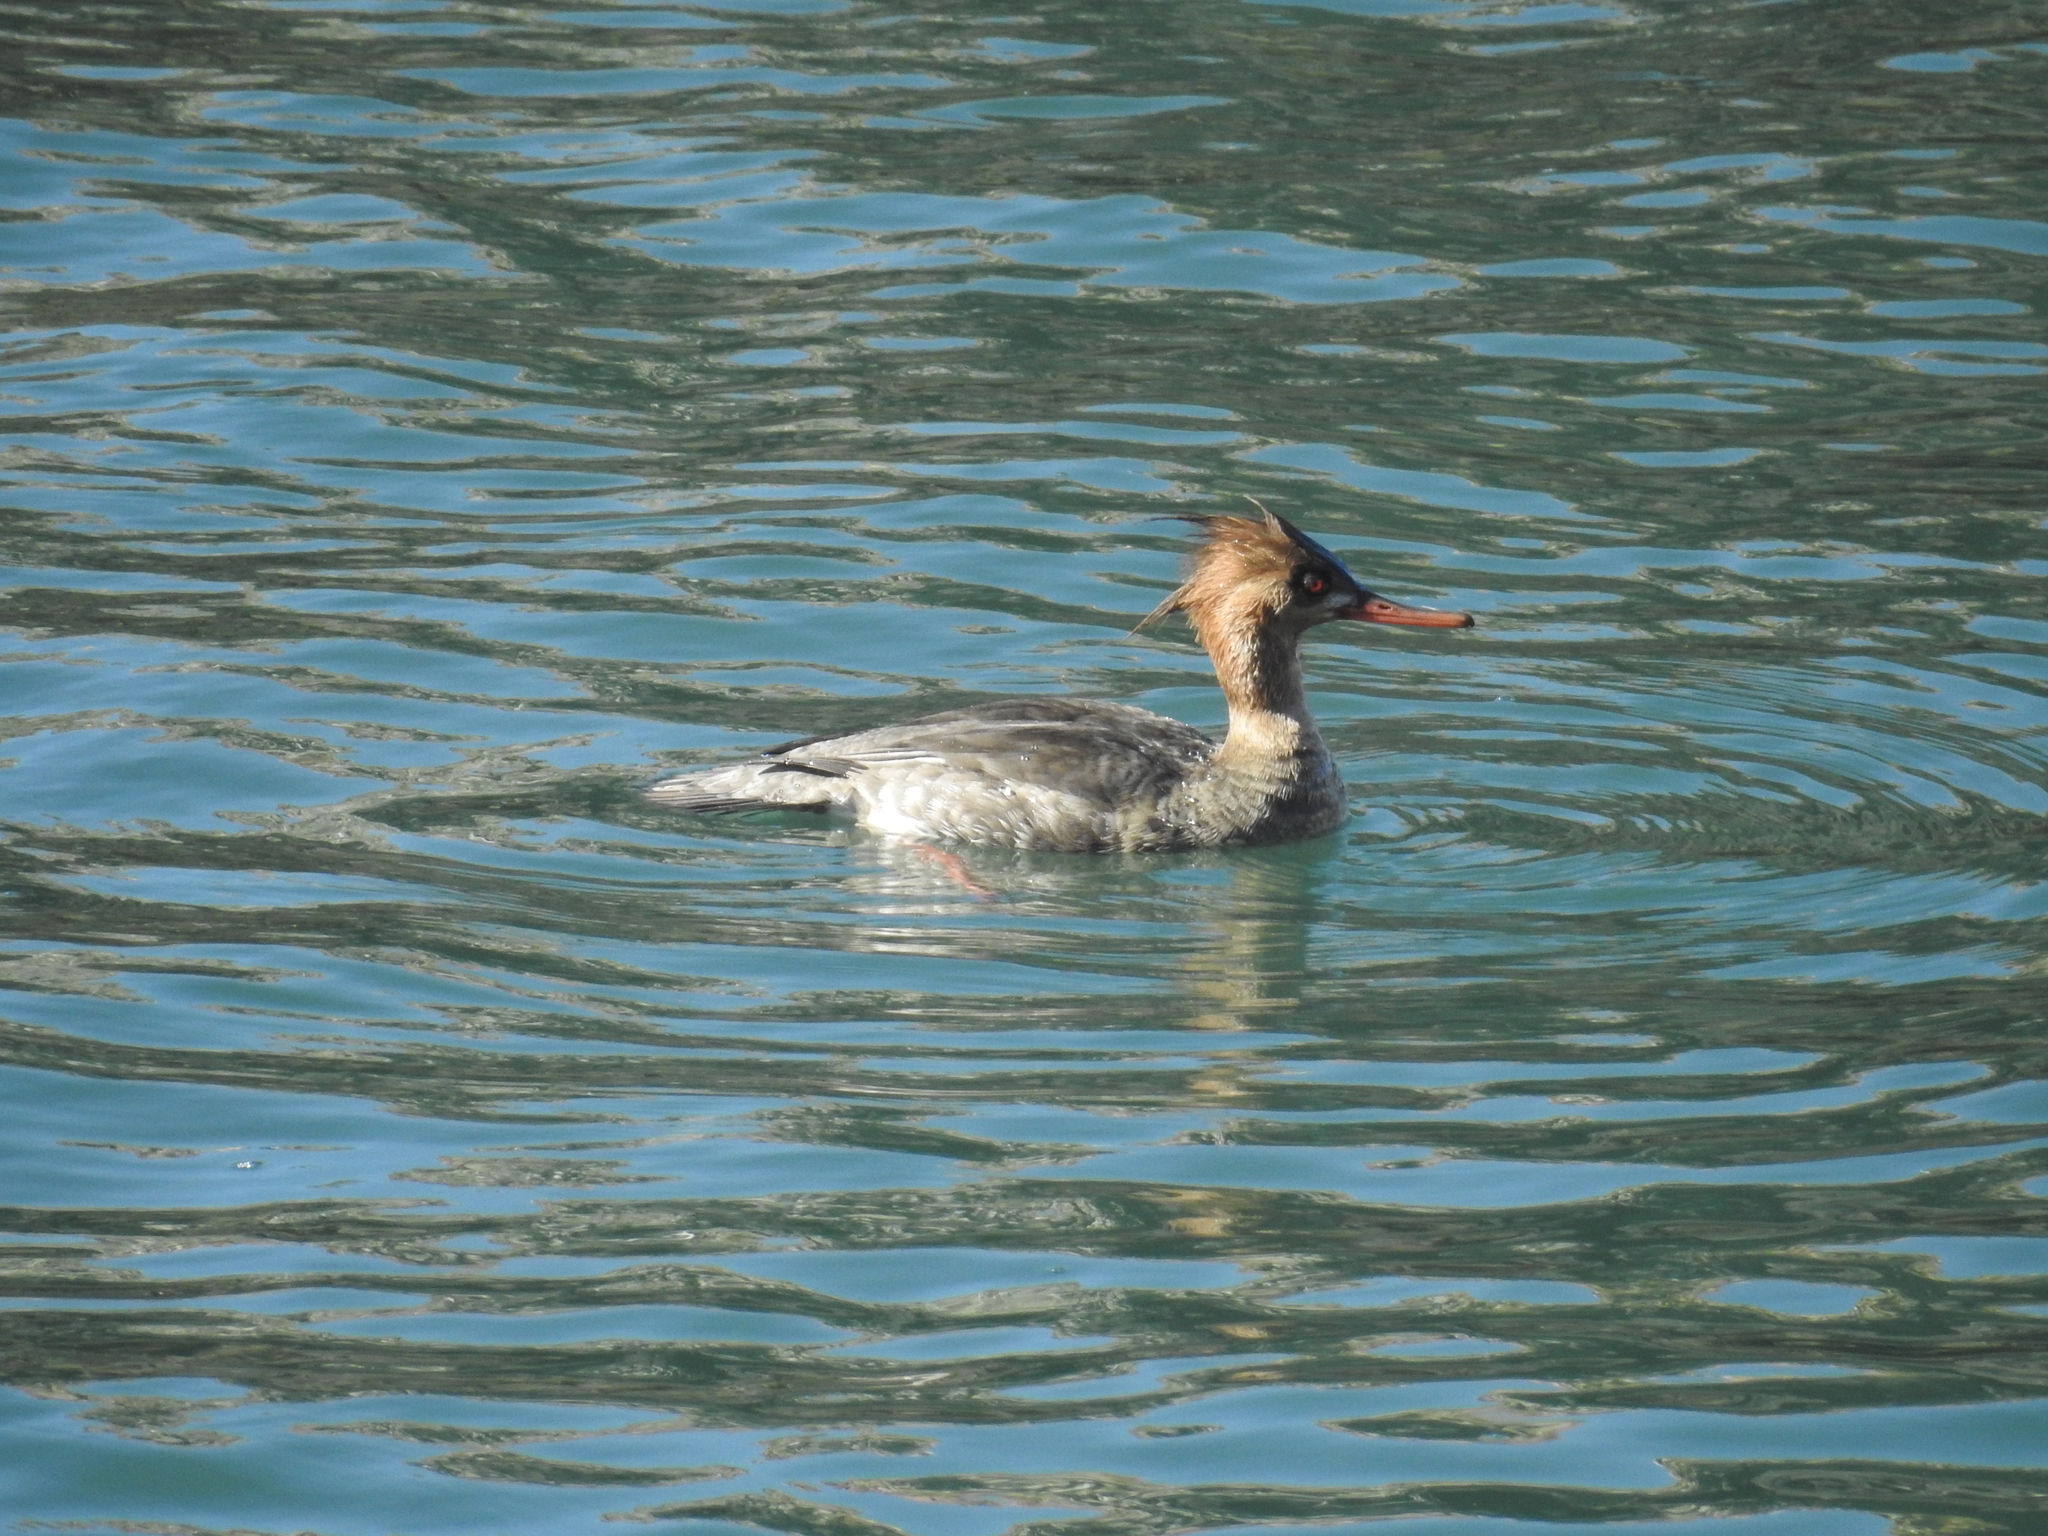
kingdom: Animalia
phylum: Chordata
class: Aves
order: Anseriformes
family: Anatidae
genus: Mergus
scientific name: Mergus serrator
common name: Red-breasted merganser
